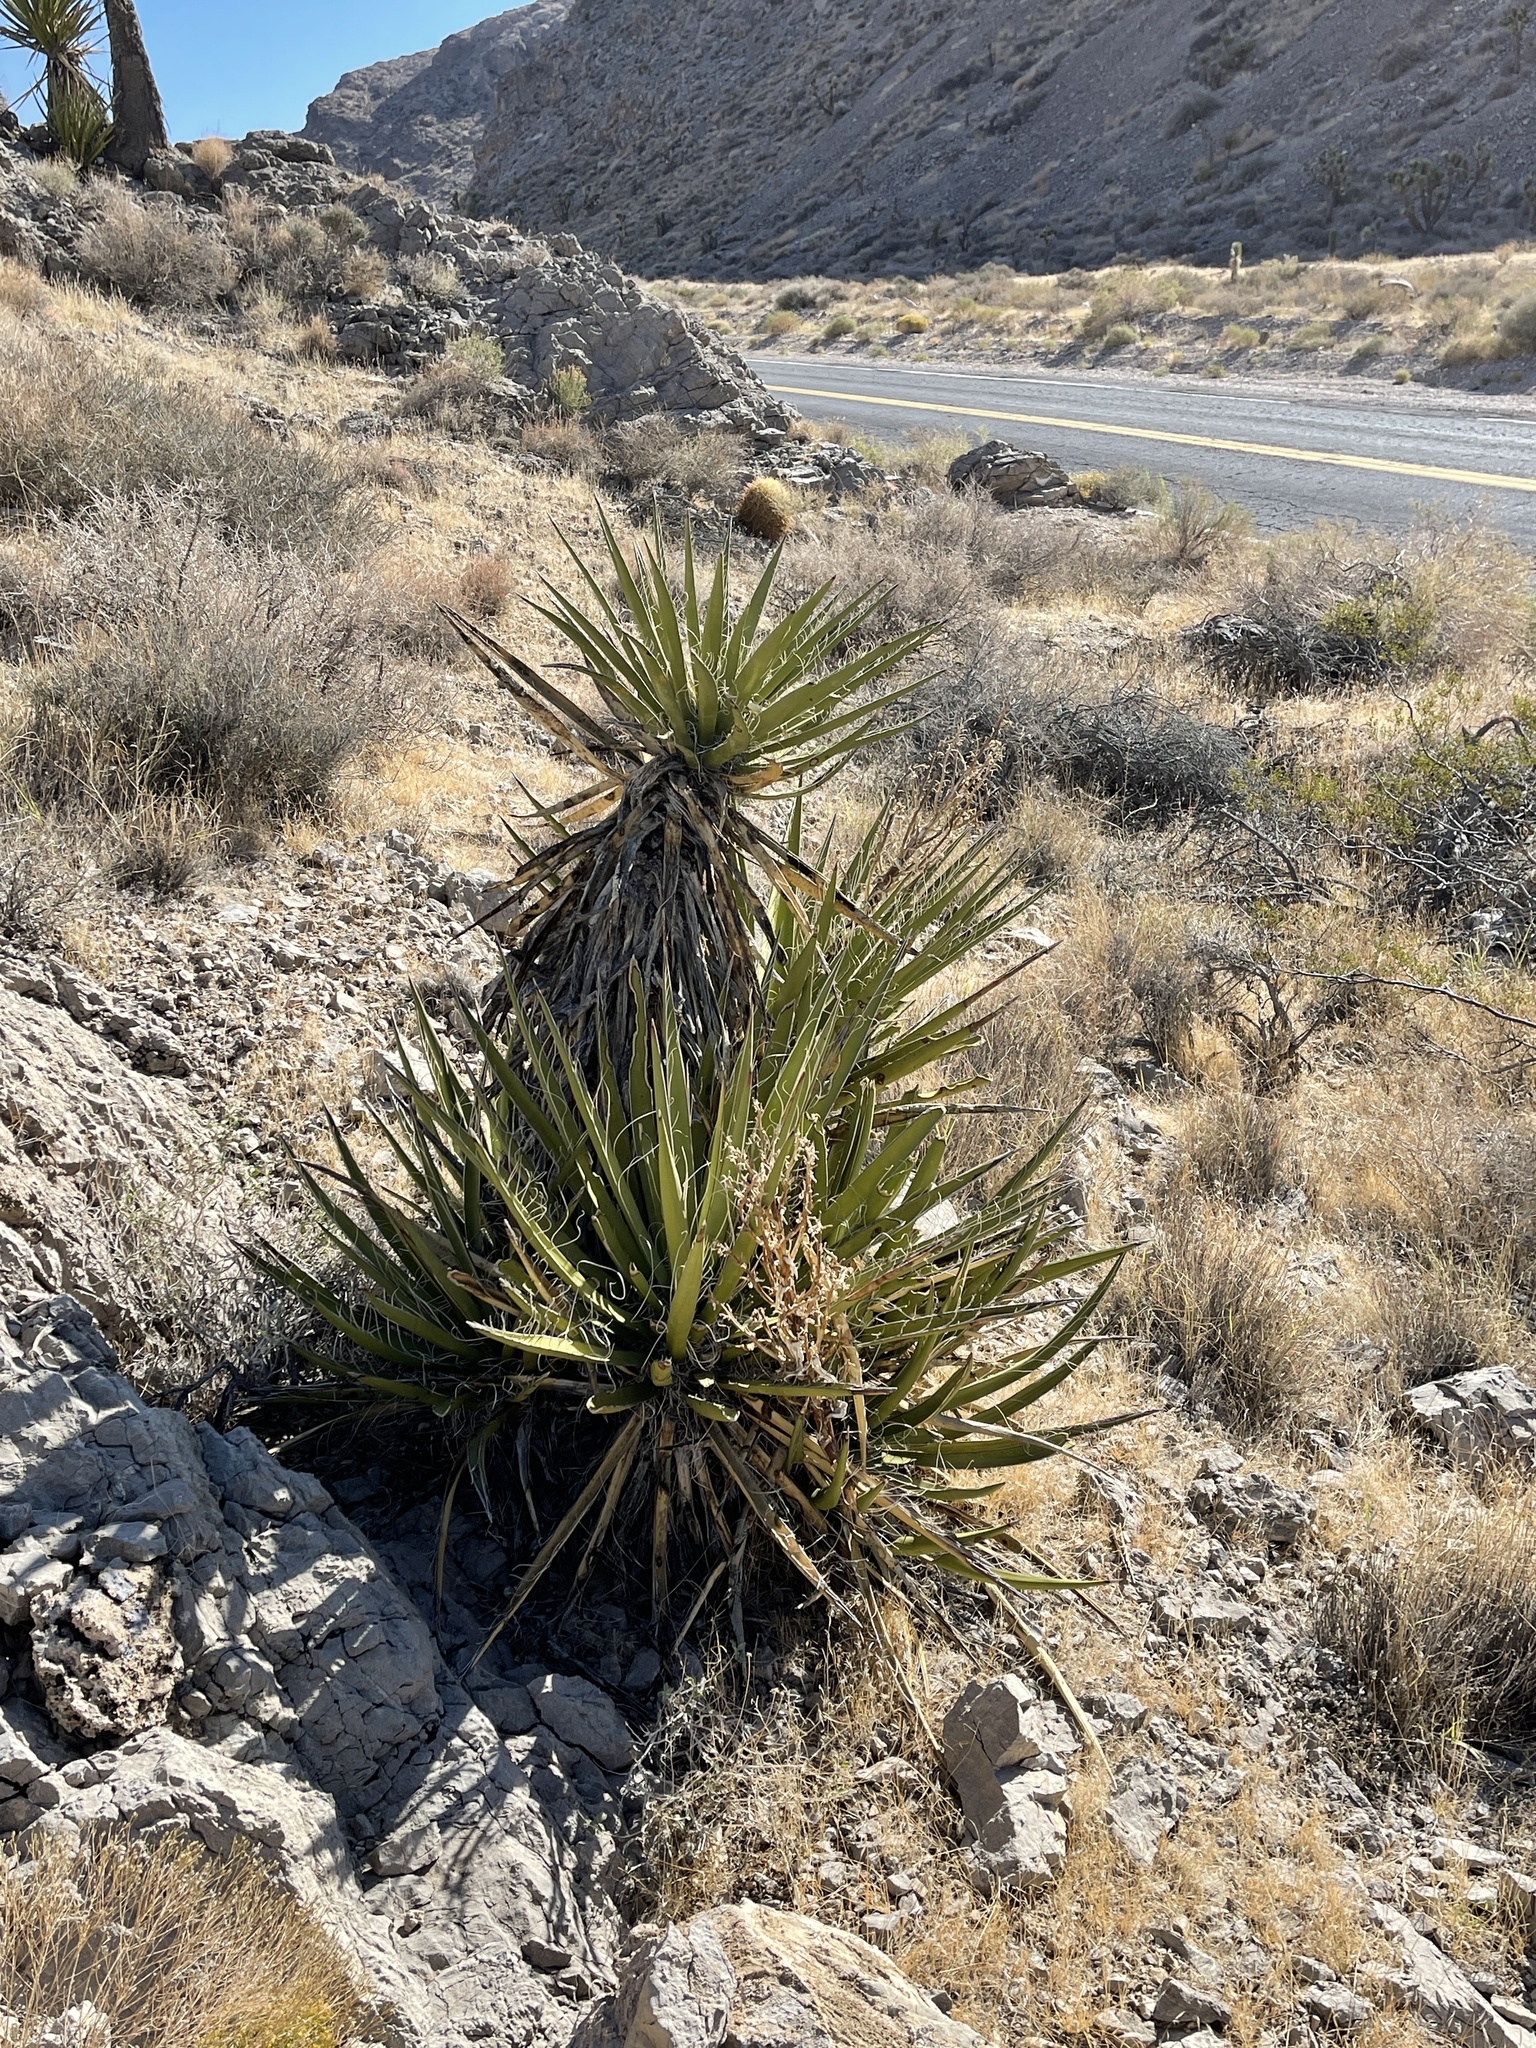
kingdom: Plantae
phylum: Tracheophyta
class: Liliopsida
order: Asparagales
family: Asparagaceae
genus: Yucca
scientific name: Yucca schidigera
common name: Mojave yucca
